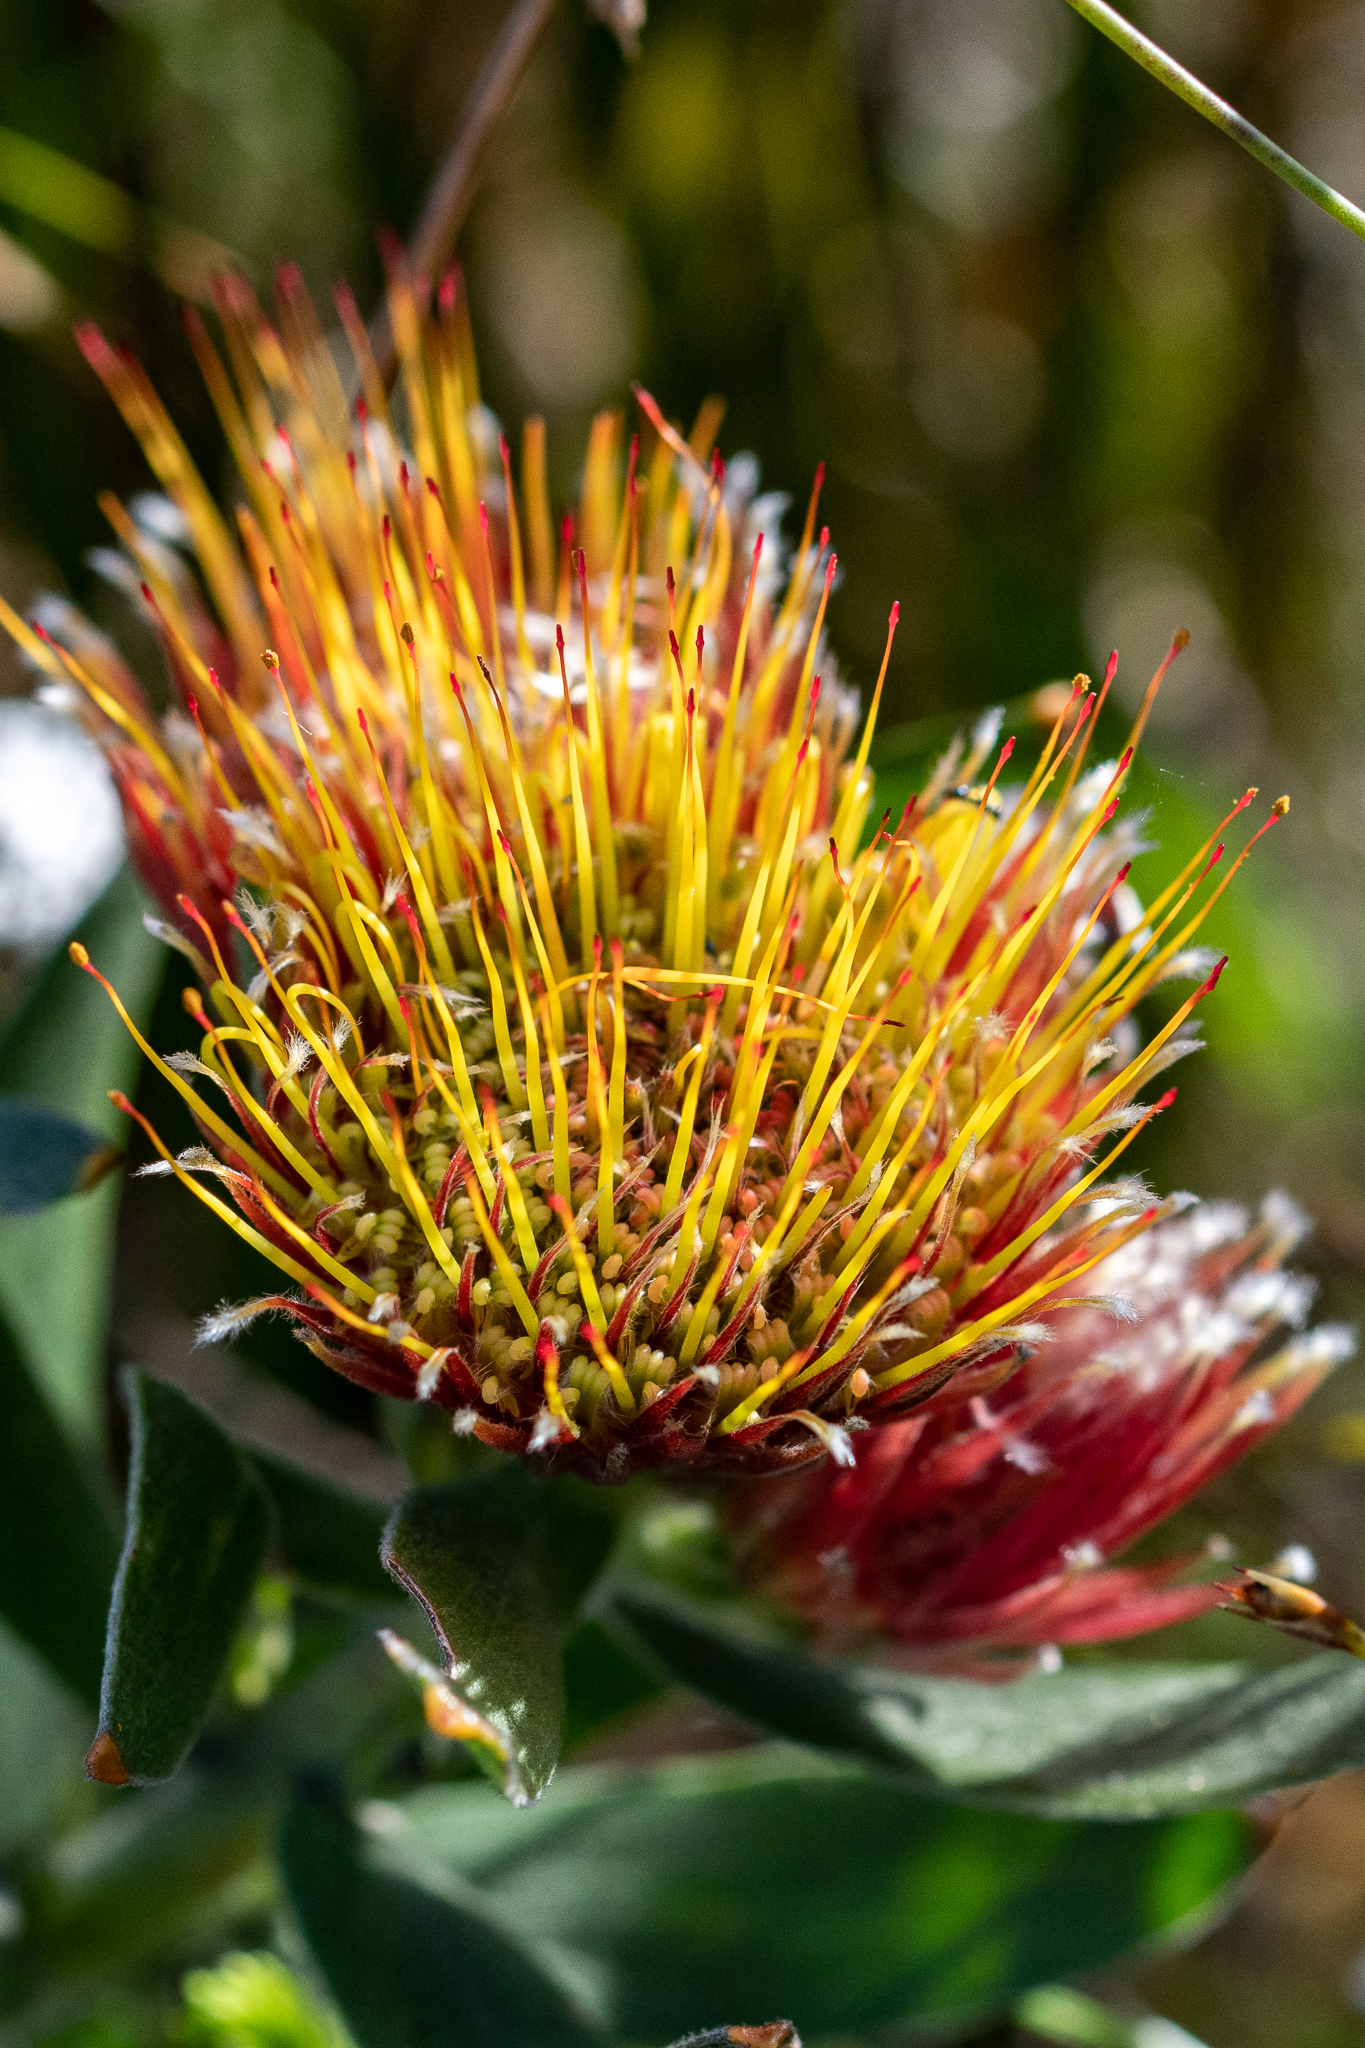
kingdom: Plantae
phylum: Tracheophyta
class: Magnoliopsida
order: Proteales
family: Proteaceae
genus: Leucospermum
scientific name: Leucospermum oleifolium
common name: Matches
